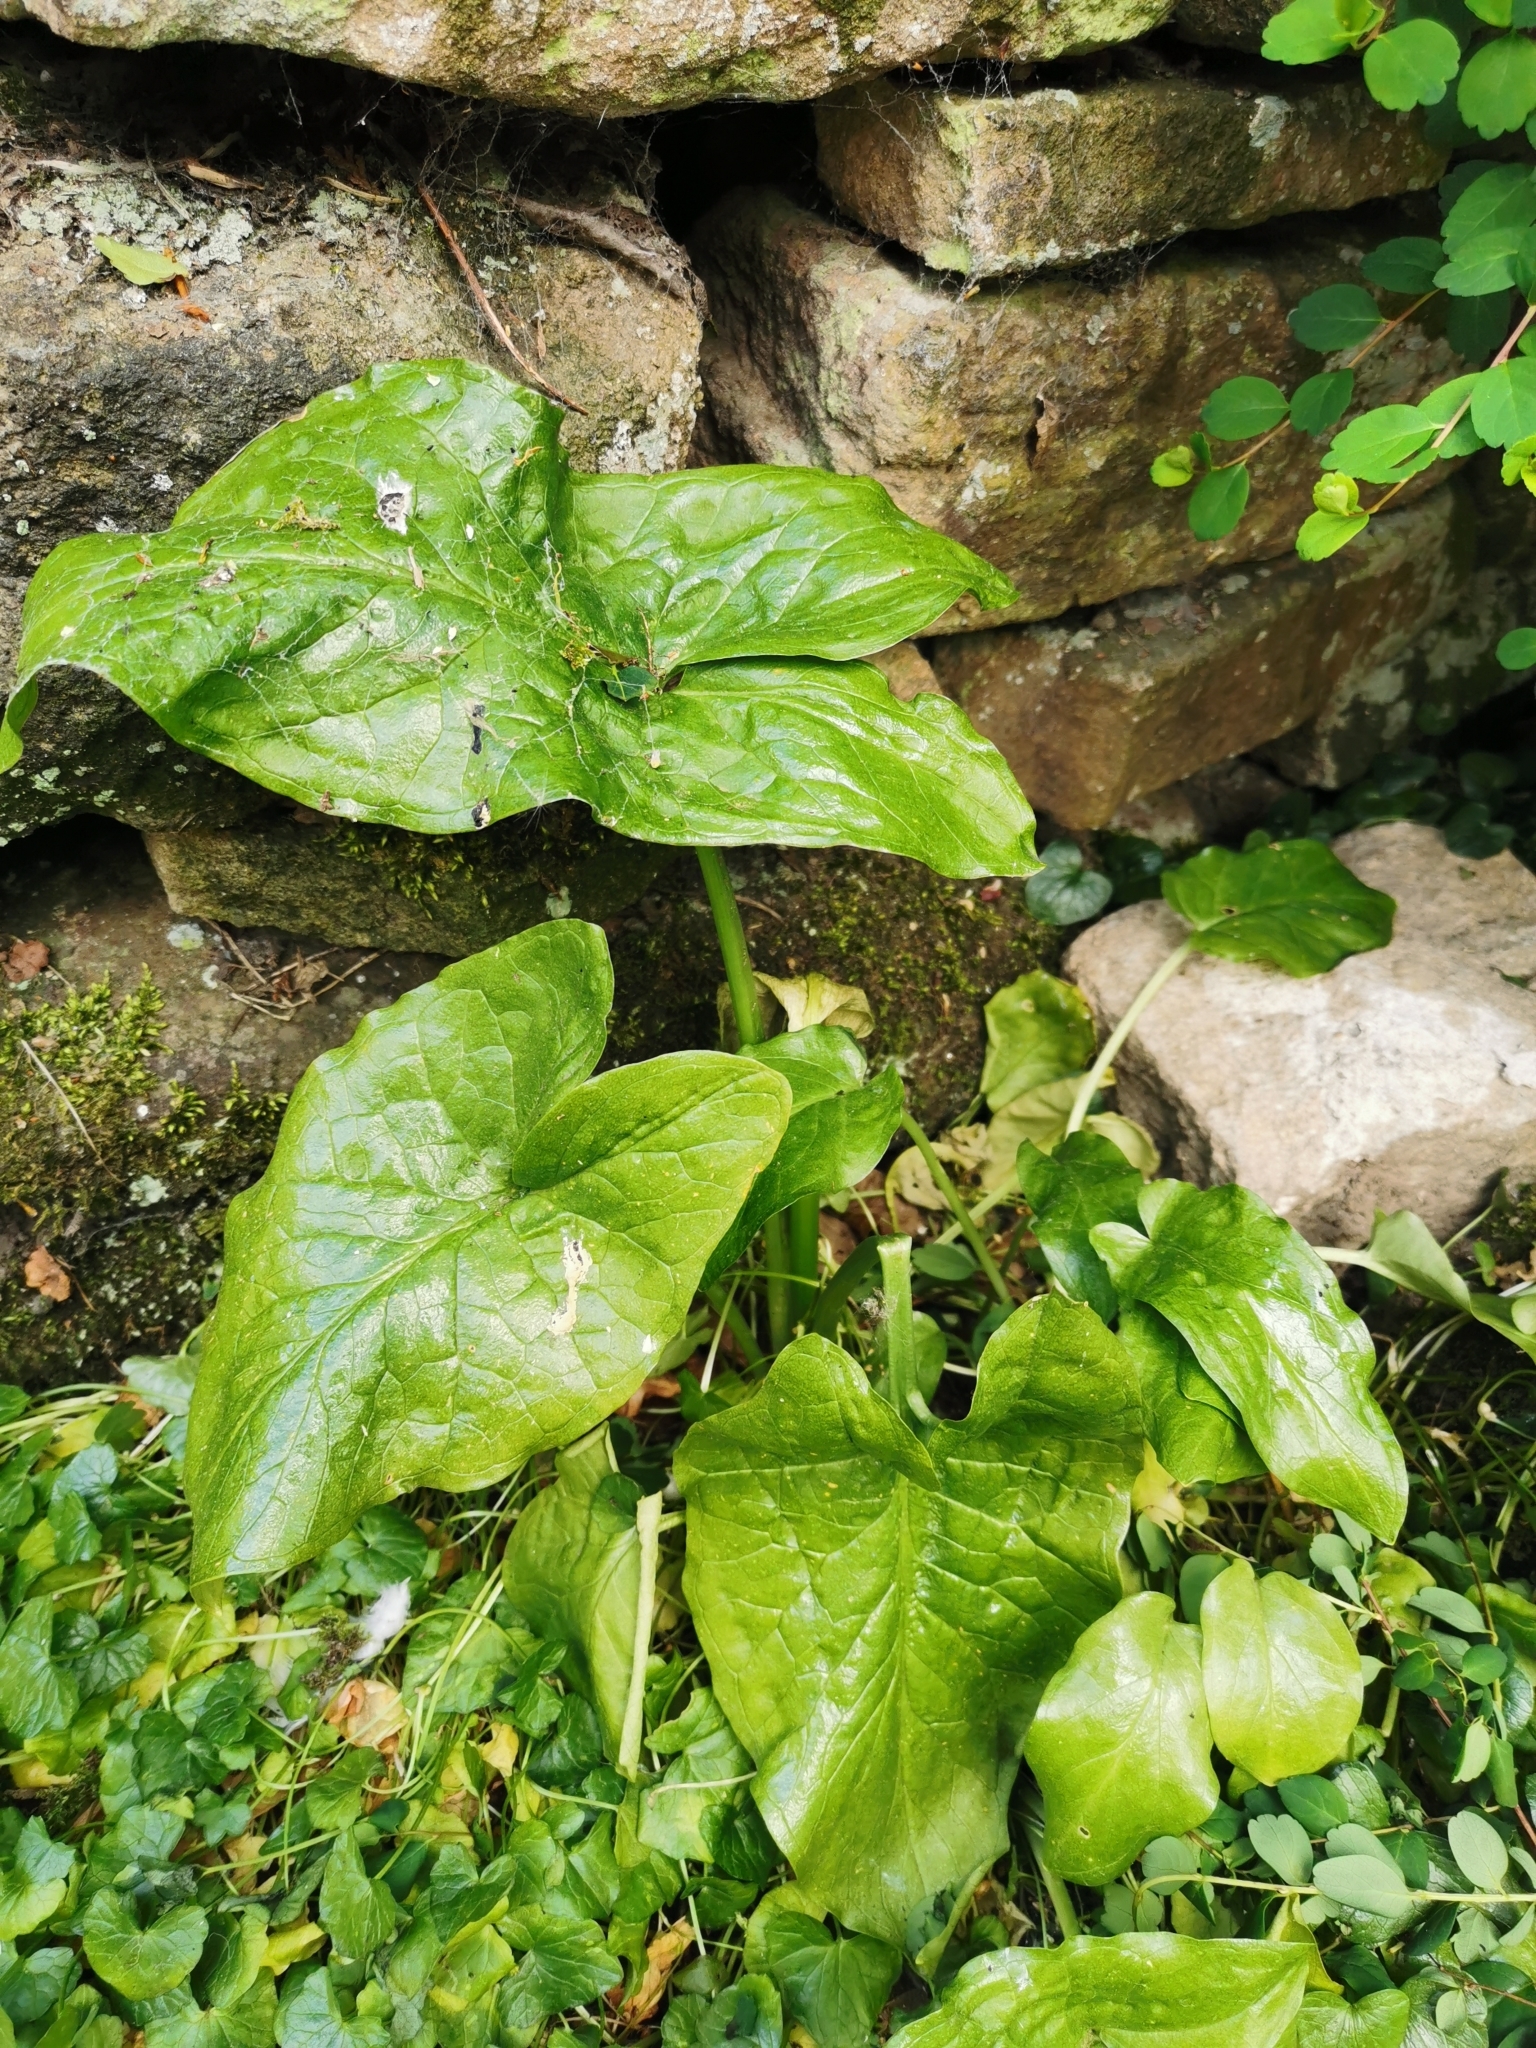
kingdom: Plantae
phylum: Tracheophyta
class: Liliopsida
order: Alismatales
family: Araceae
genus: Arum
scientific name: Arum maculatum
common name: Lords-and-ladies
